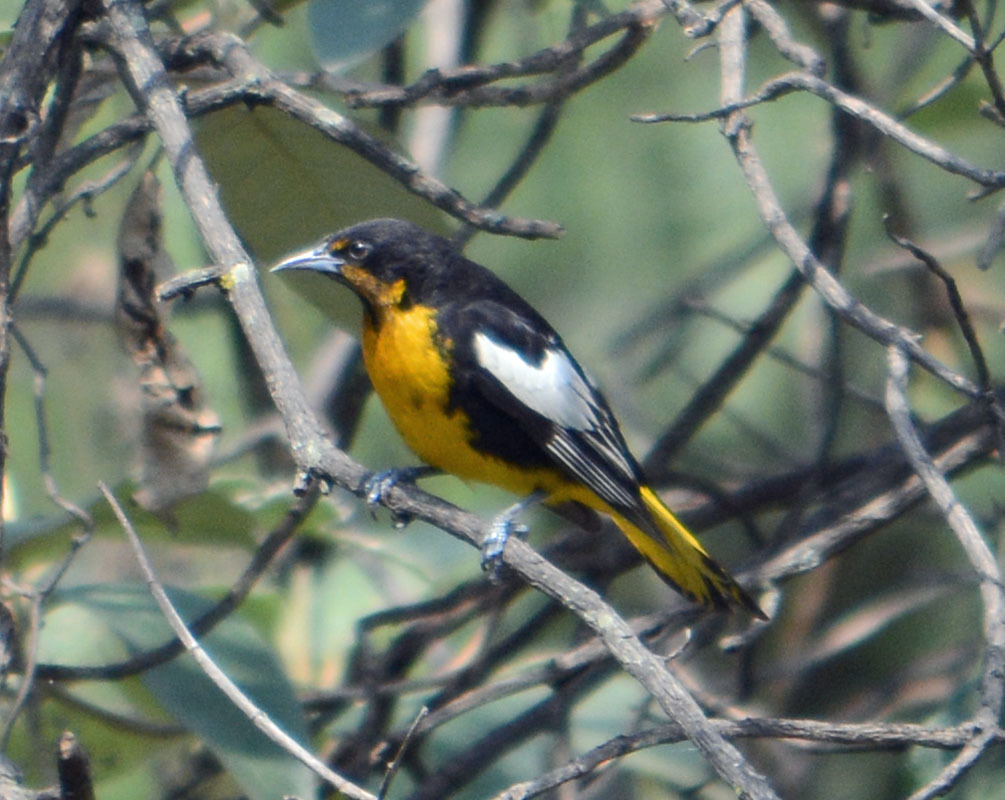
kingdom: Animalia
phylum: Chordata
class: Aves
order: Passeriformes
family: Icteridae
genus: Icterus
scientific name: Icterus abeillei
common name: Black-backed oriole
